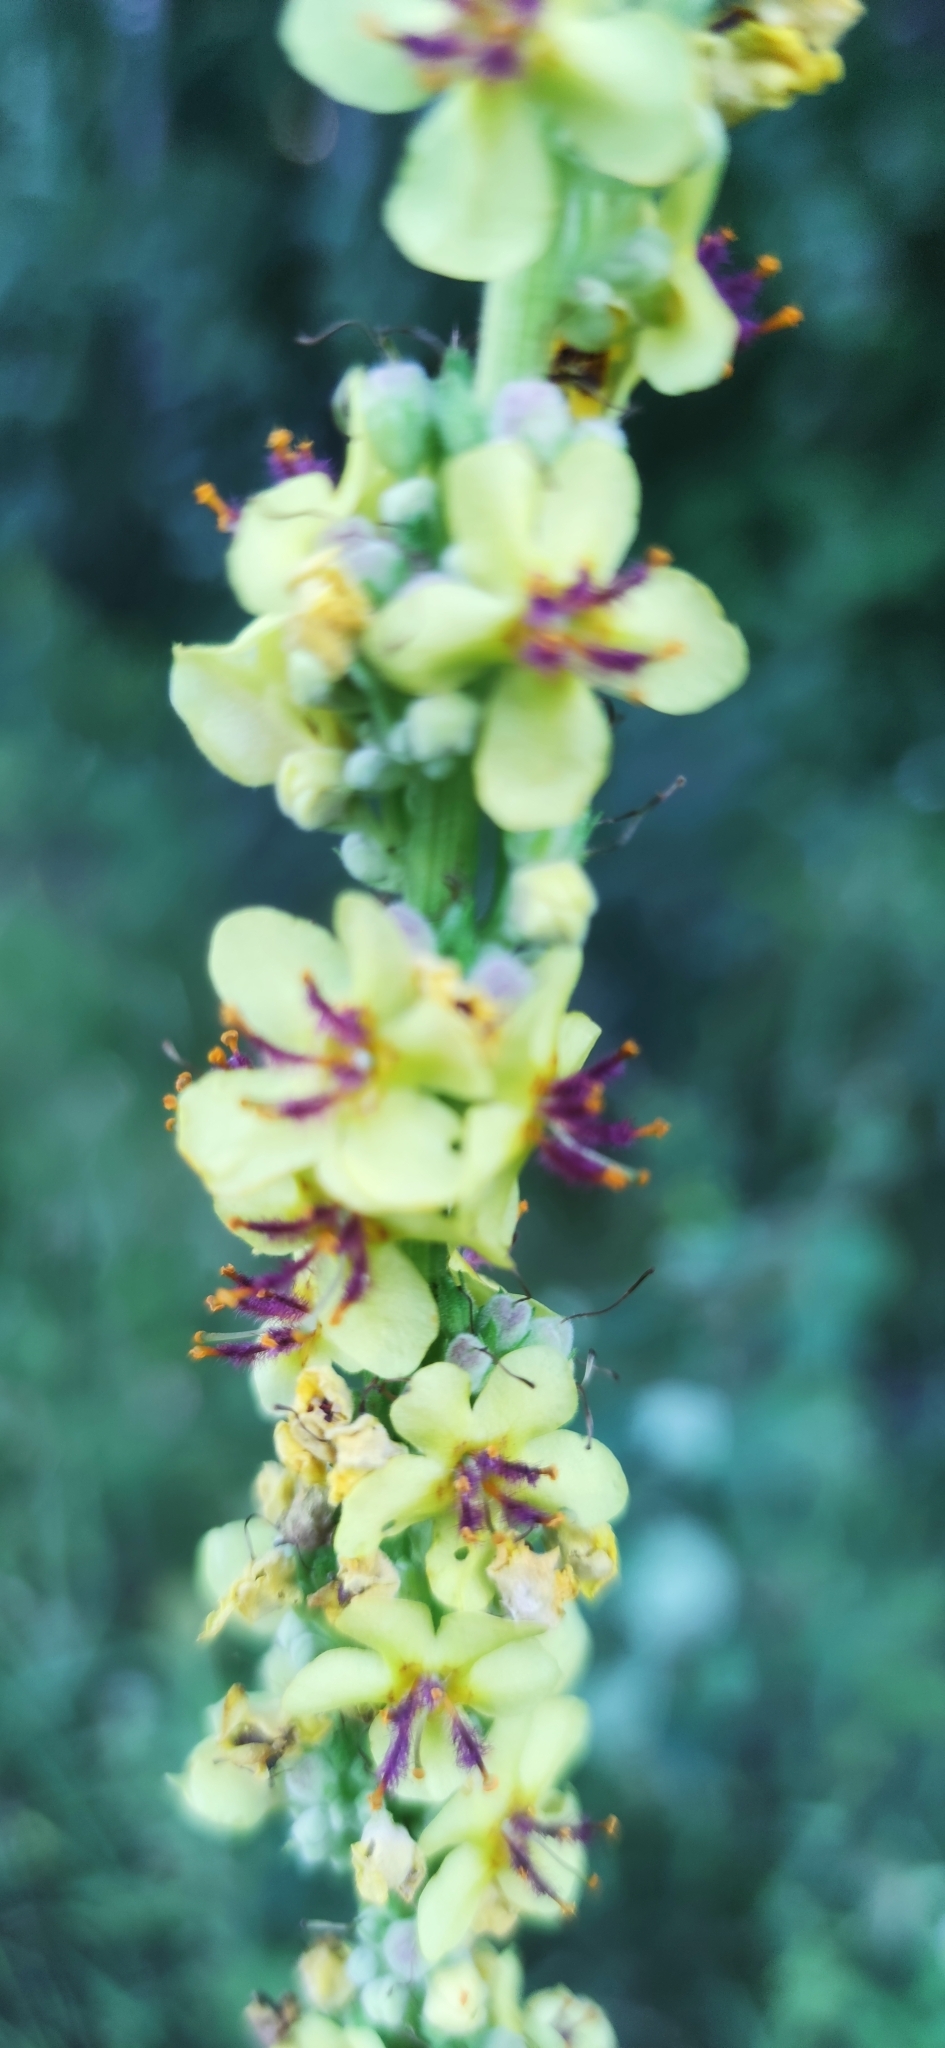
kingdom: Plantae
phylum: Tracheophyta
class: Magnoliopsida
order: Lamiales
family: Scrophulariaceae
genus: Verbascum
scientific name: Verbascum nigrum
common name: Dark mullein
